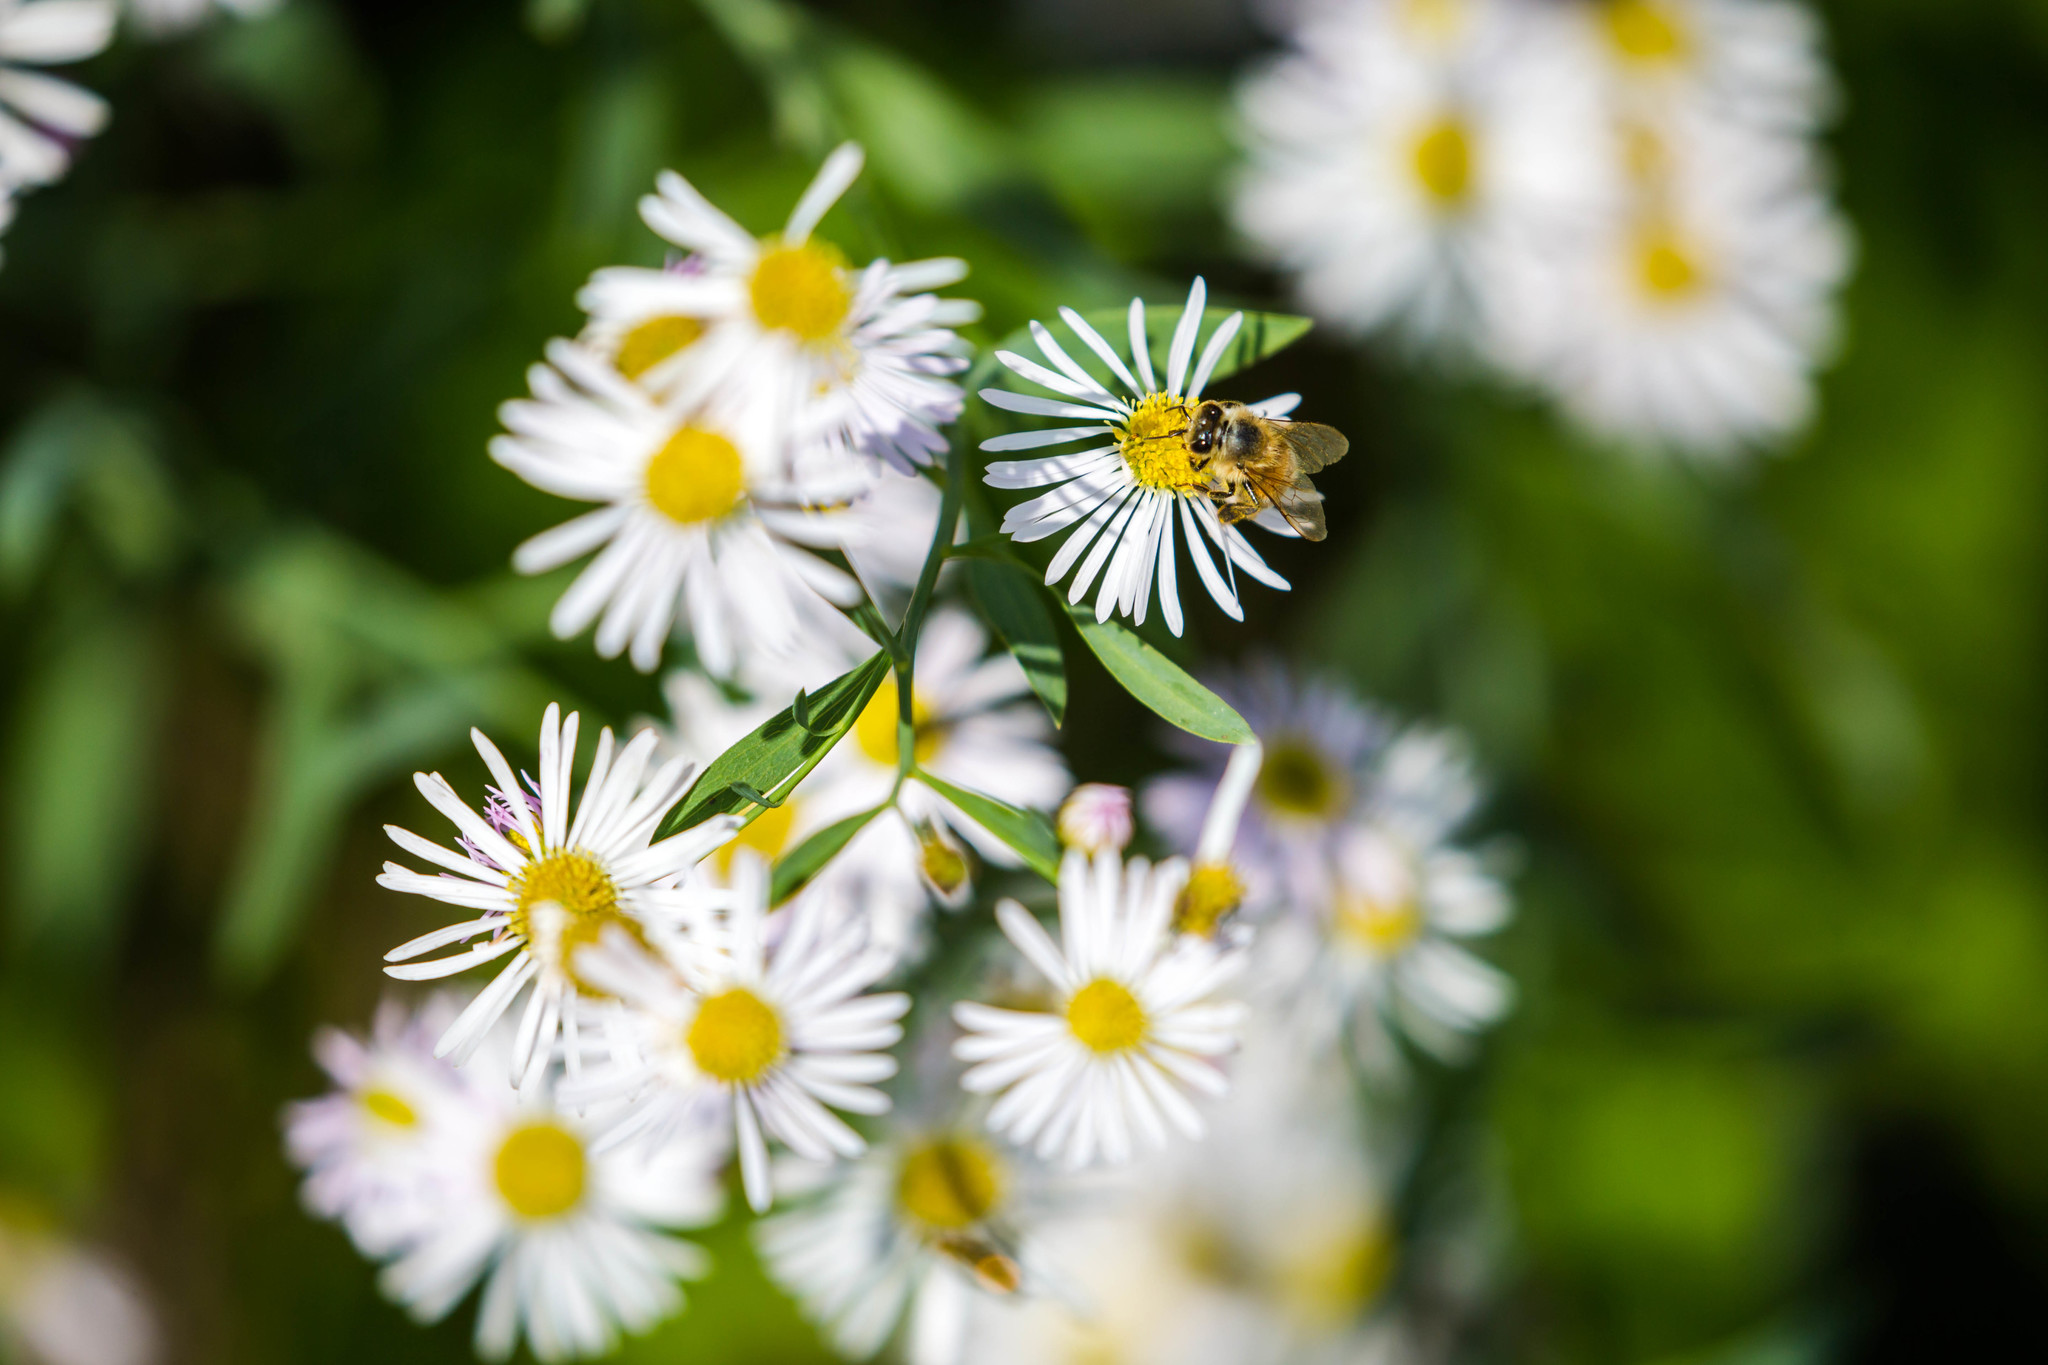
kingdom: Animalia
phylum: Arthropoda
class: Insecta
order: Hymenoptera
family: Apidae
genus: Apis
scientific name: Apis mellifera
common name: Honey bee
